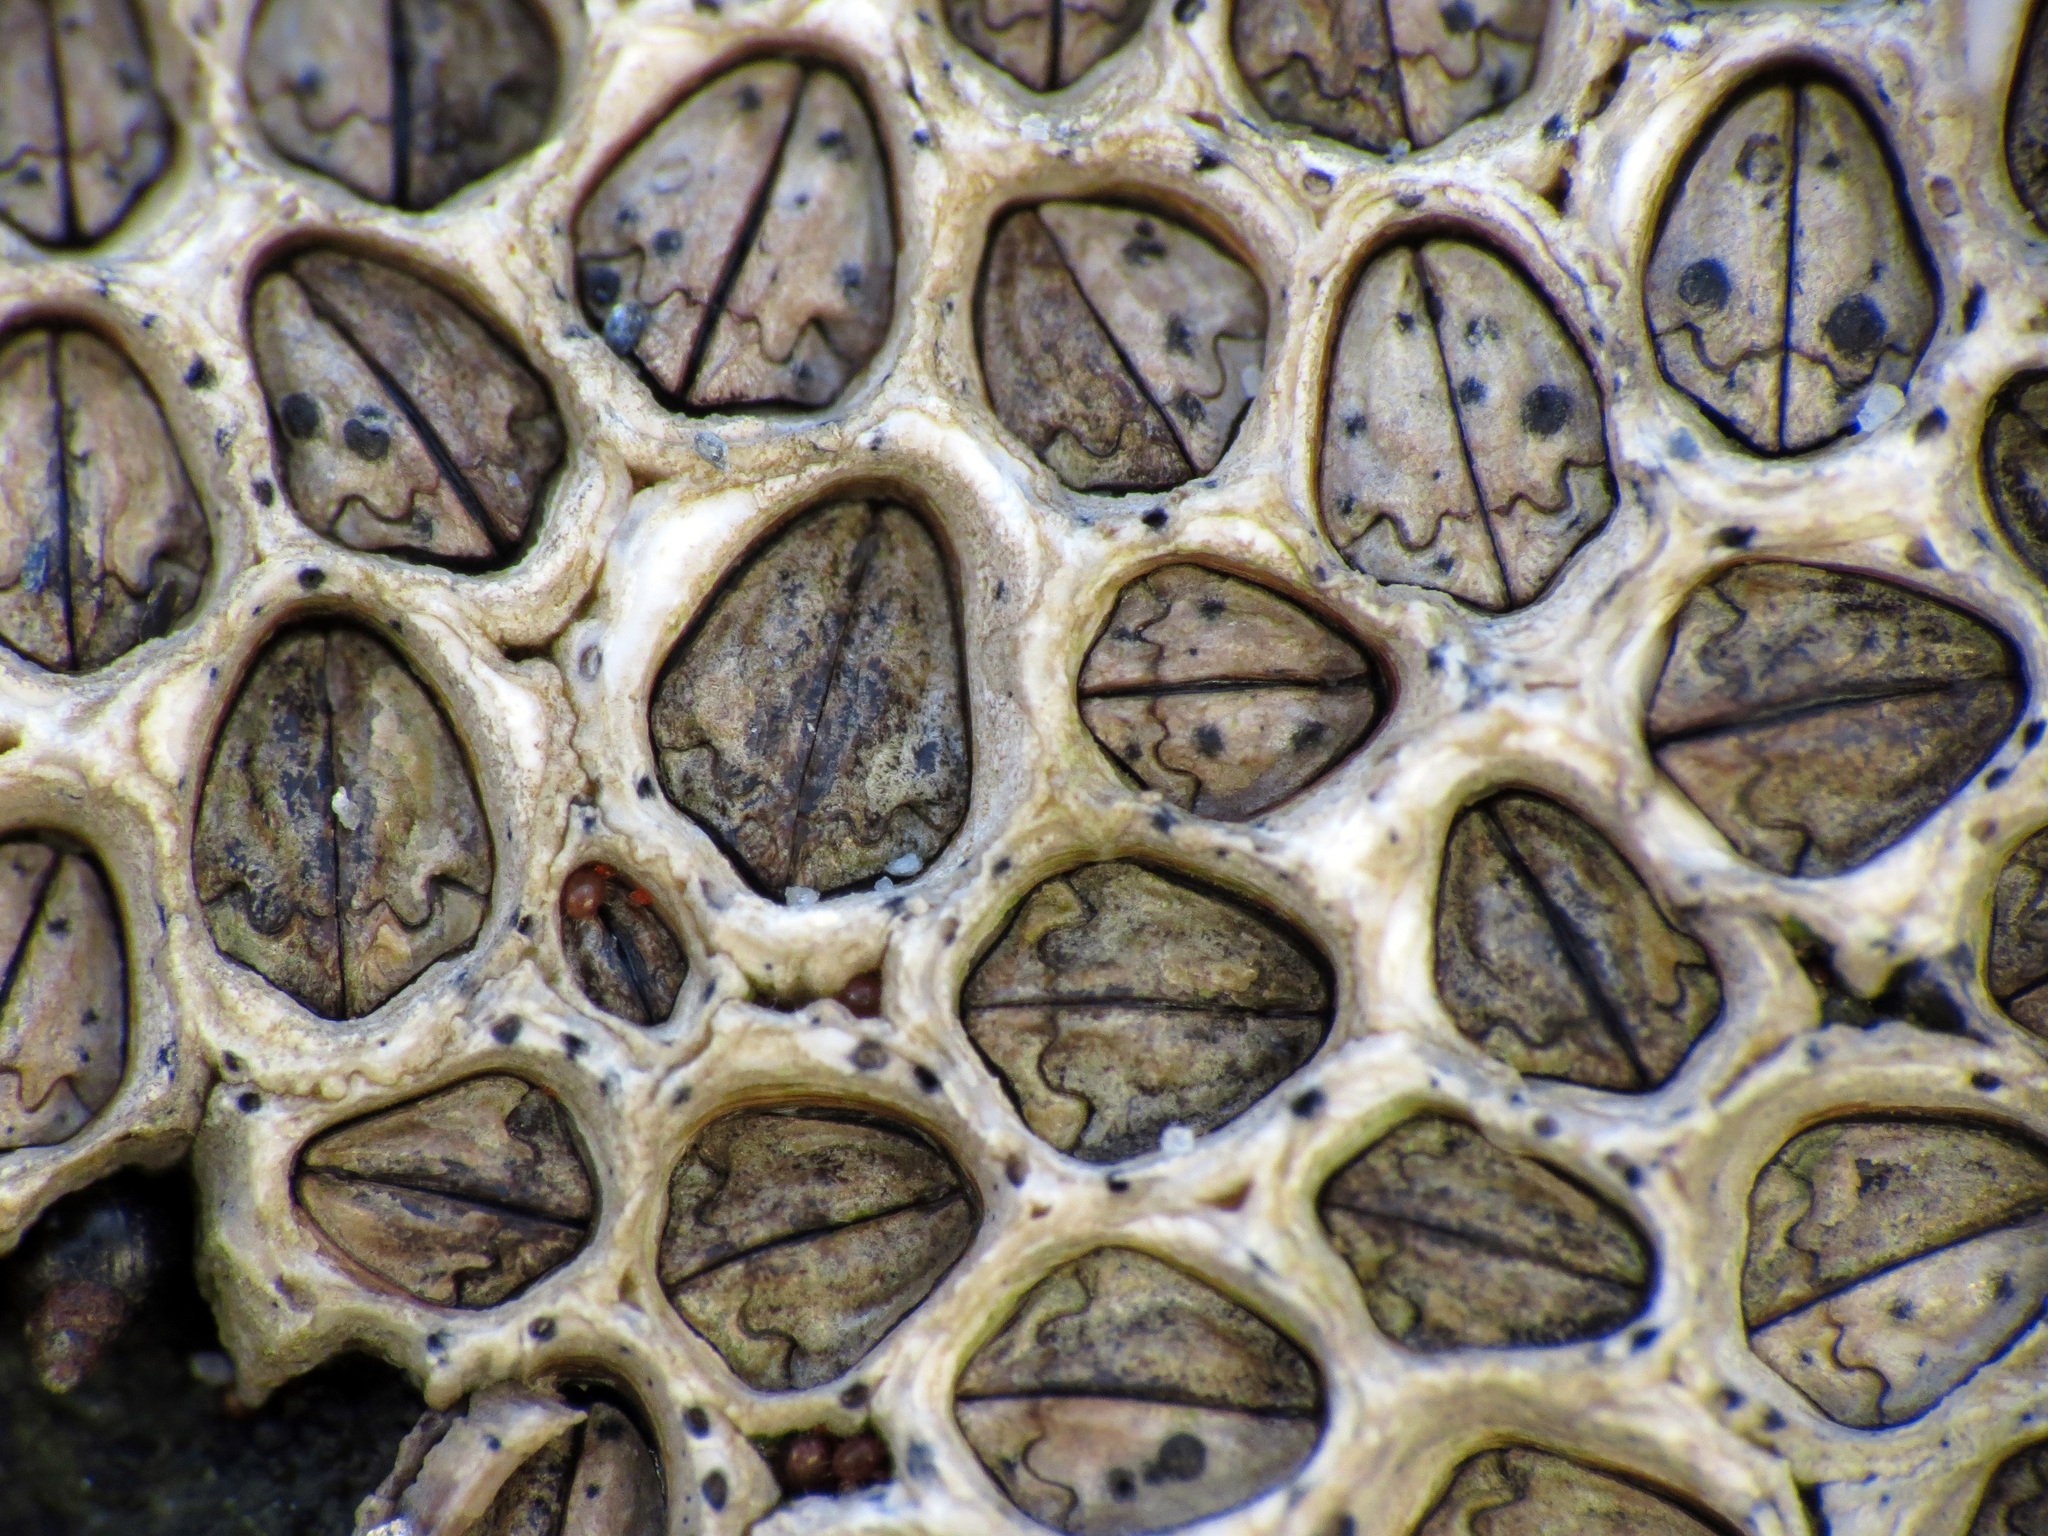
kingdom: Animalia
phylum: Arthropoda
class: Maxillopoda
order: Sessilia
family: Chthamalidae
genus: Chamaesipho
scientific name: Chamaesipho columna
